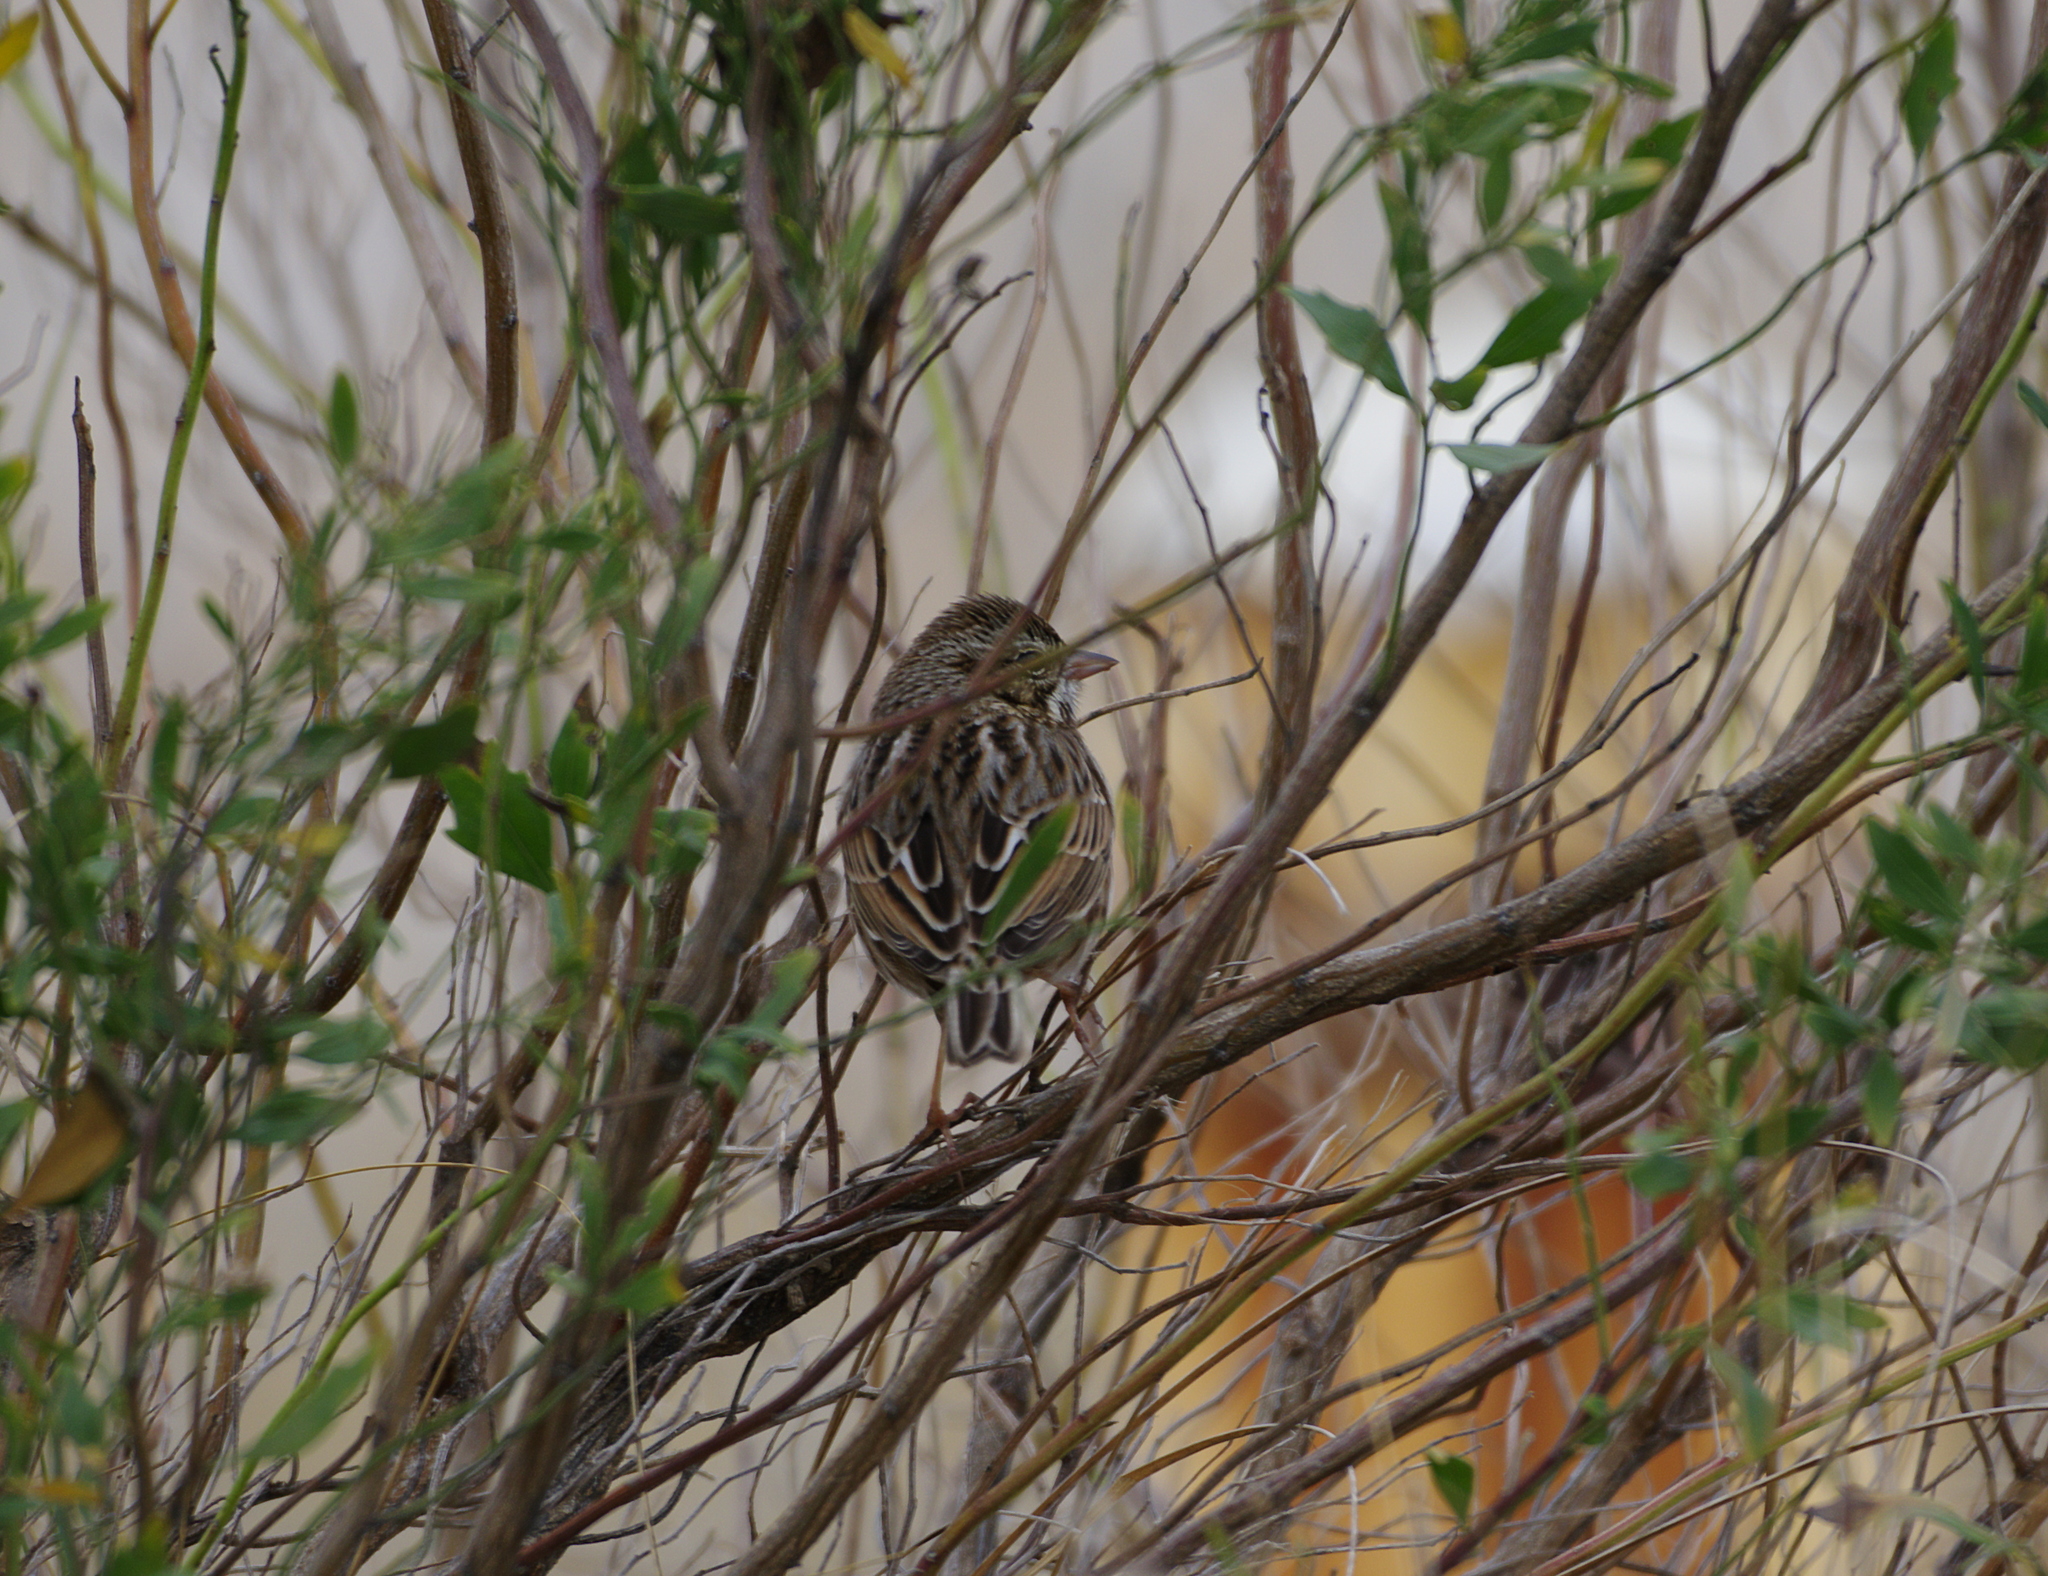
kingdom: Animalia
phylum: Chordata
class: Aves
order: Passeriformes
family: Passerellidae
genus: Passerculus
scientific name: Passerculus sandwichensis
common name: Savannah sparrow
